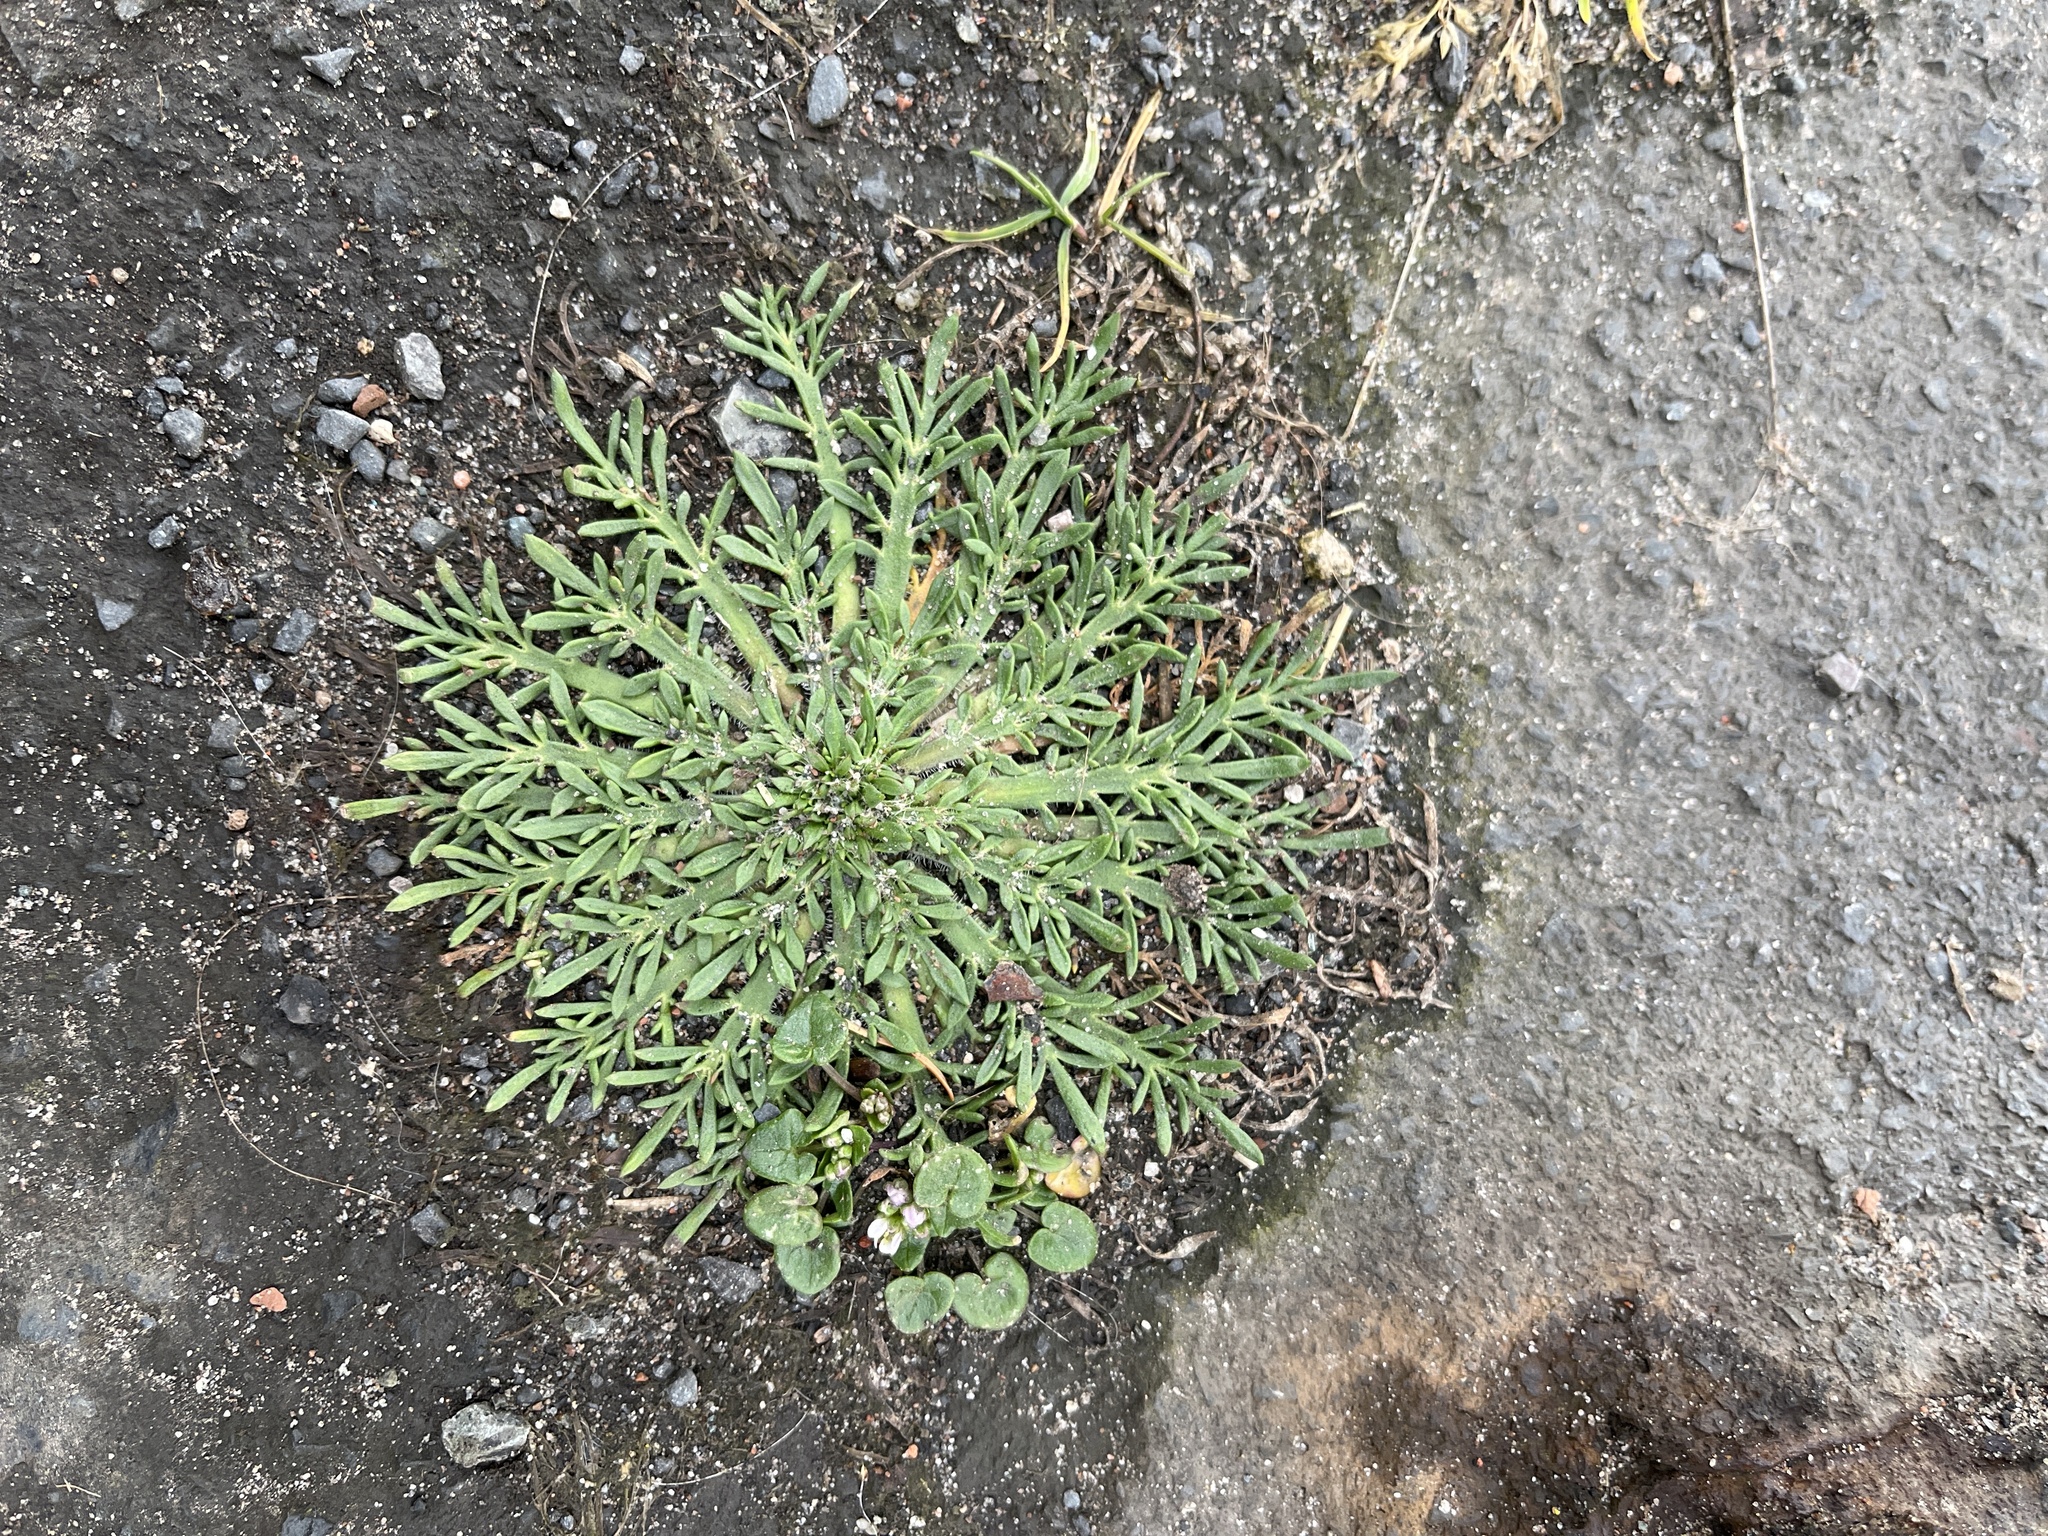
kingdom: Plantae
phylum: Tracheophyta
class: Magnoliopsida
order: Lamiales
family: Plantaginaceae
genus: Plantago
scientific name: Plantago coronopus
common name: Buck's-horn plantain
